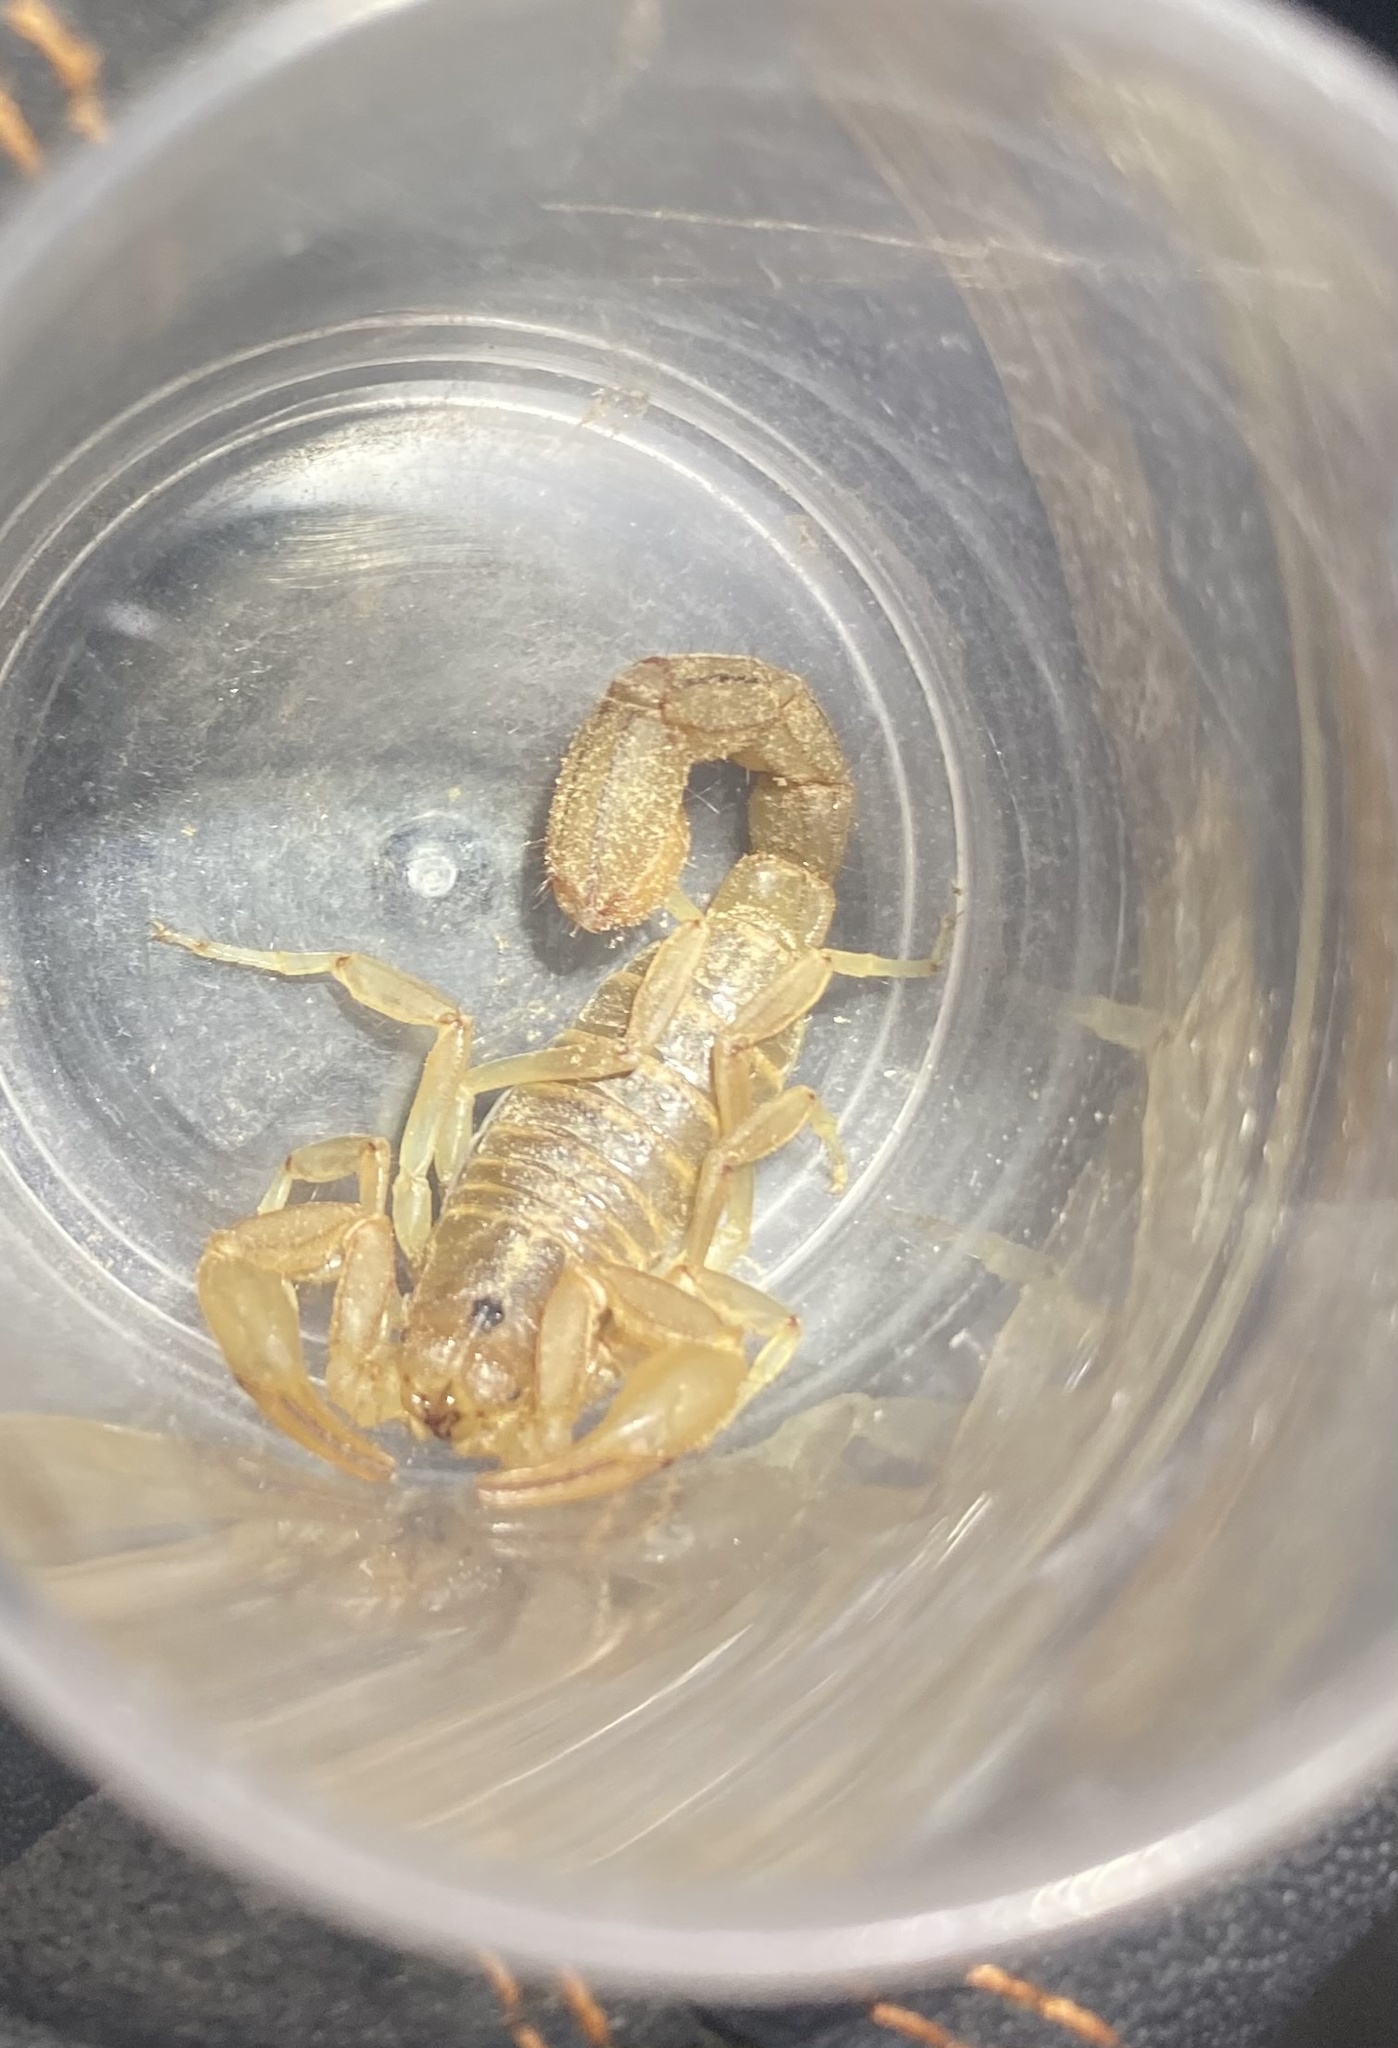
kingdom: Animalia
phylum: Arthropoda
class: Arachnida
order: Scorpiones
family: Vaejovidae
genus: Paravaejovis
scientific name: Paravaejovis spinigerus
